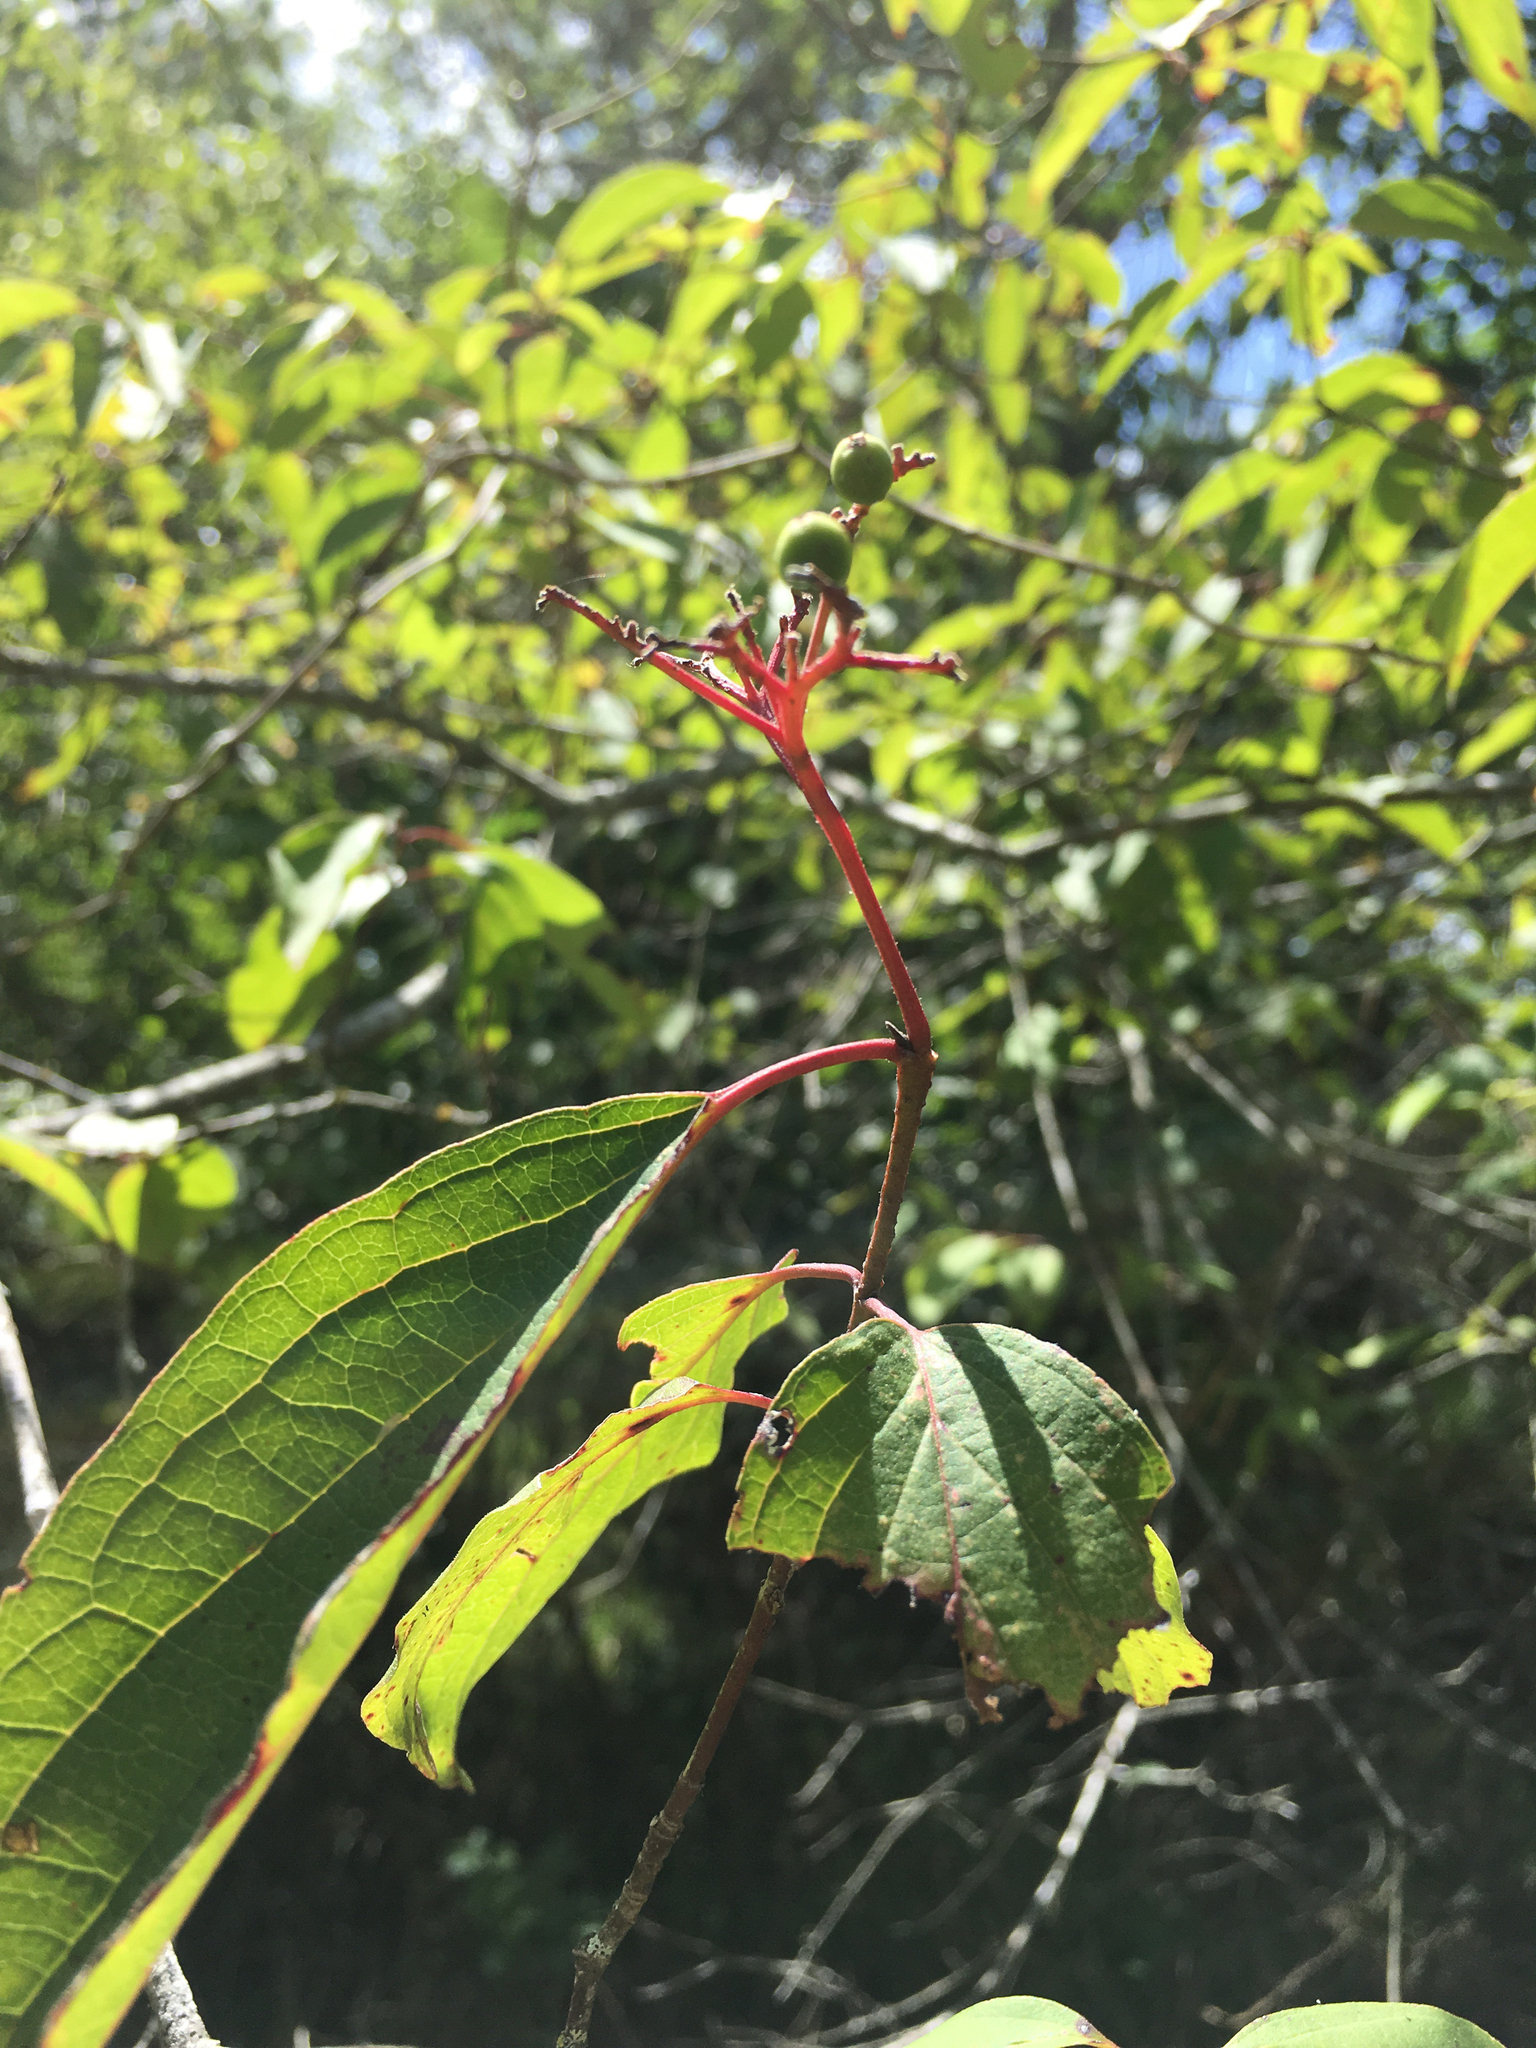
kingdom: Plantae
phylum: Tracheophyta
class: Magnoliopsida
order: Cornales
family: Cornaceae
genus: Cornus
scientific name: Cornus drummondii
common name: Rough-leaf dogwood
